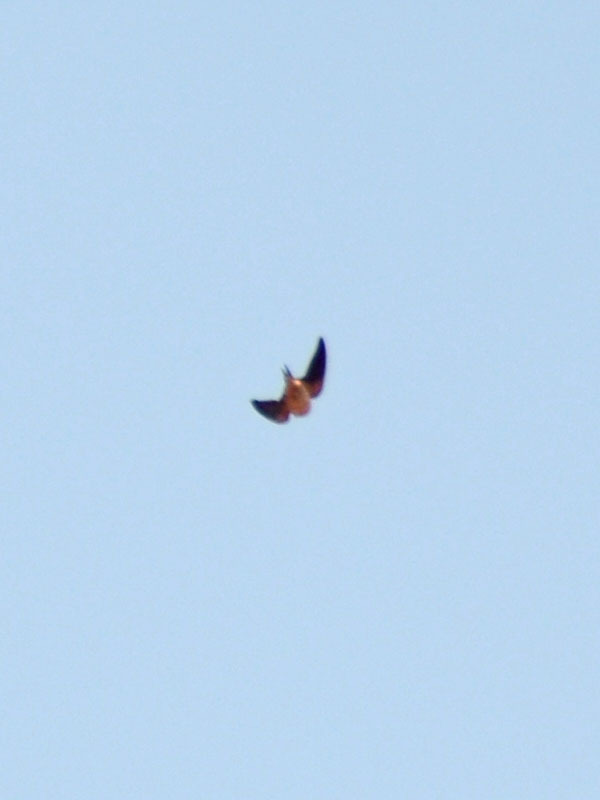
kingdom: Animalia
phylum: Chordata
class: Aves
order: Passeriformes
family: Hirundinidae
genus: Hirundo
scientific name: Hirundo rustica
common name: Barn swallow
